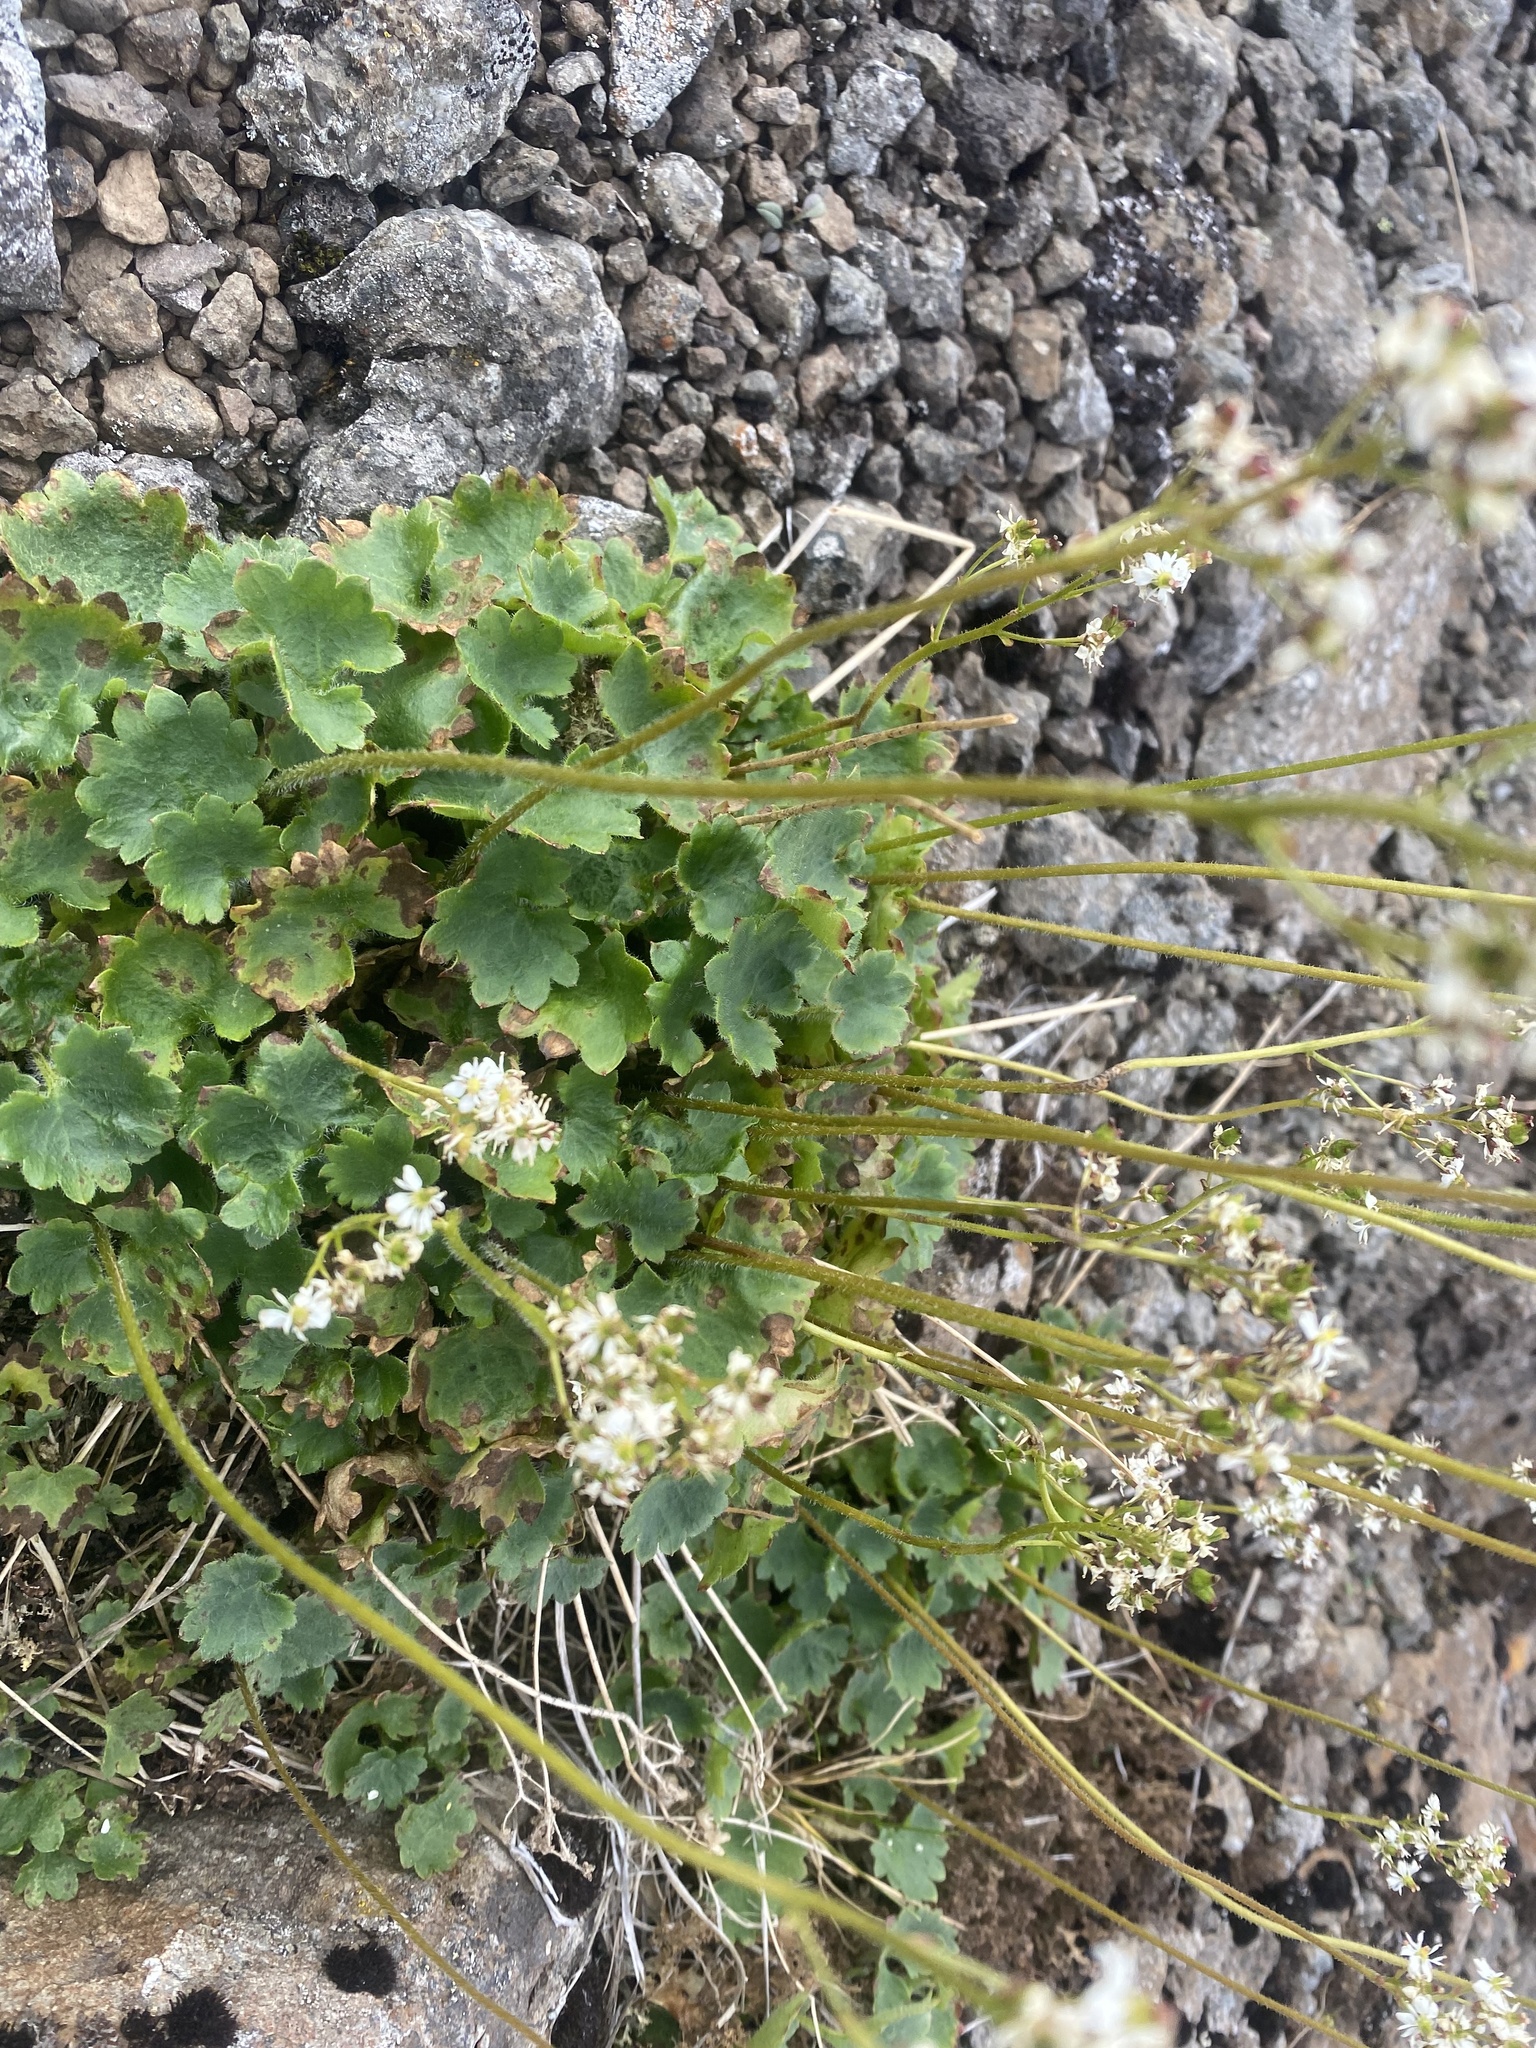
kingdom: Plantae
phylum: Tracheophyta
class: Magnoliopsida
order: Saxifragales
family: Saxifragaceae
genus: Micranthes
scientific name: Micranthes nelsoniana
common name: Nelson's saxifrage
